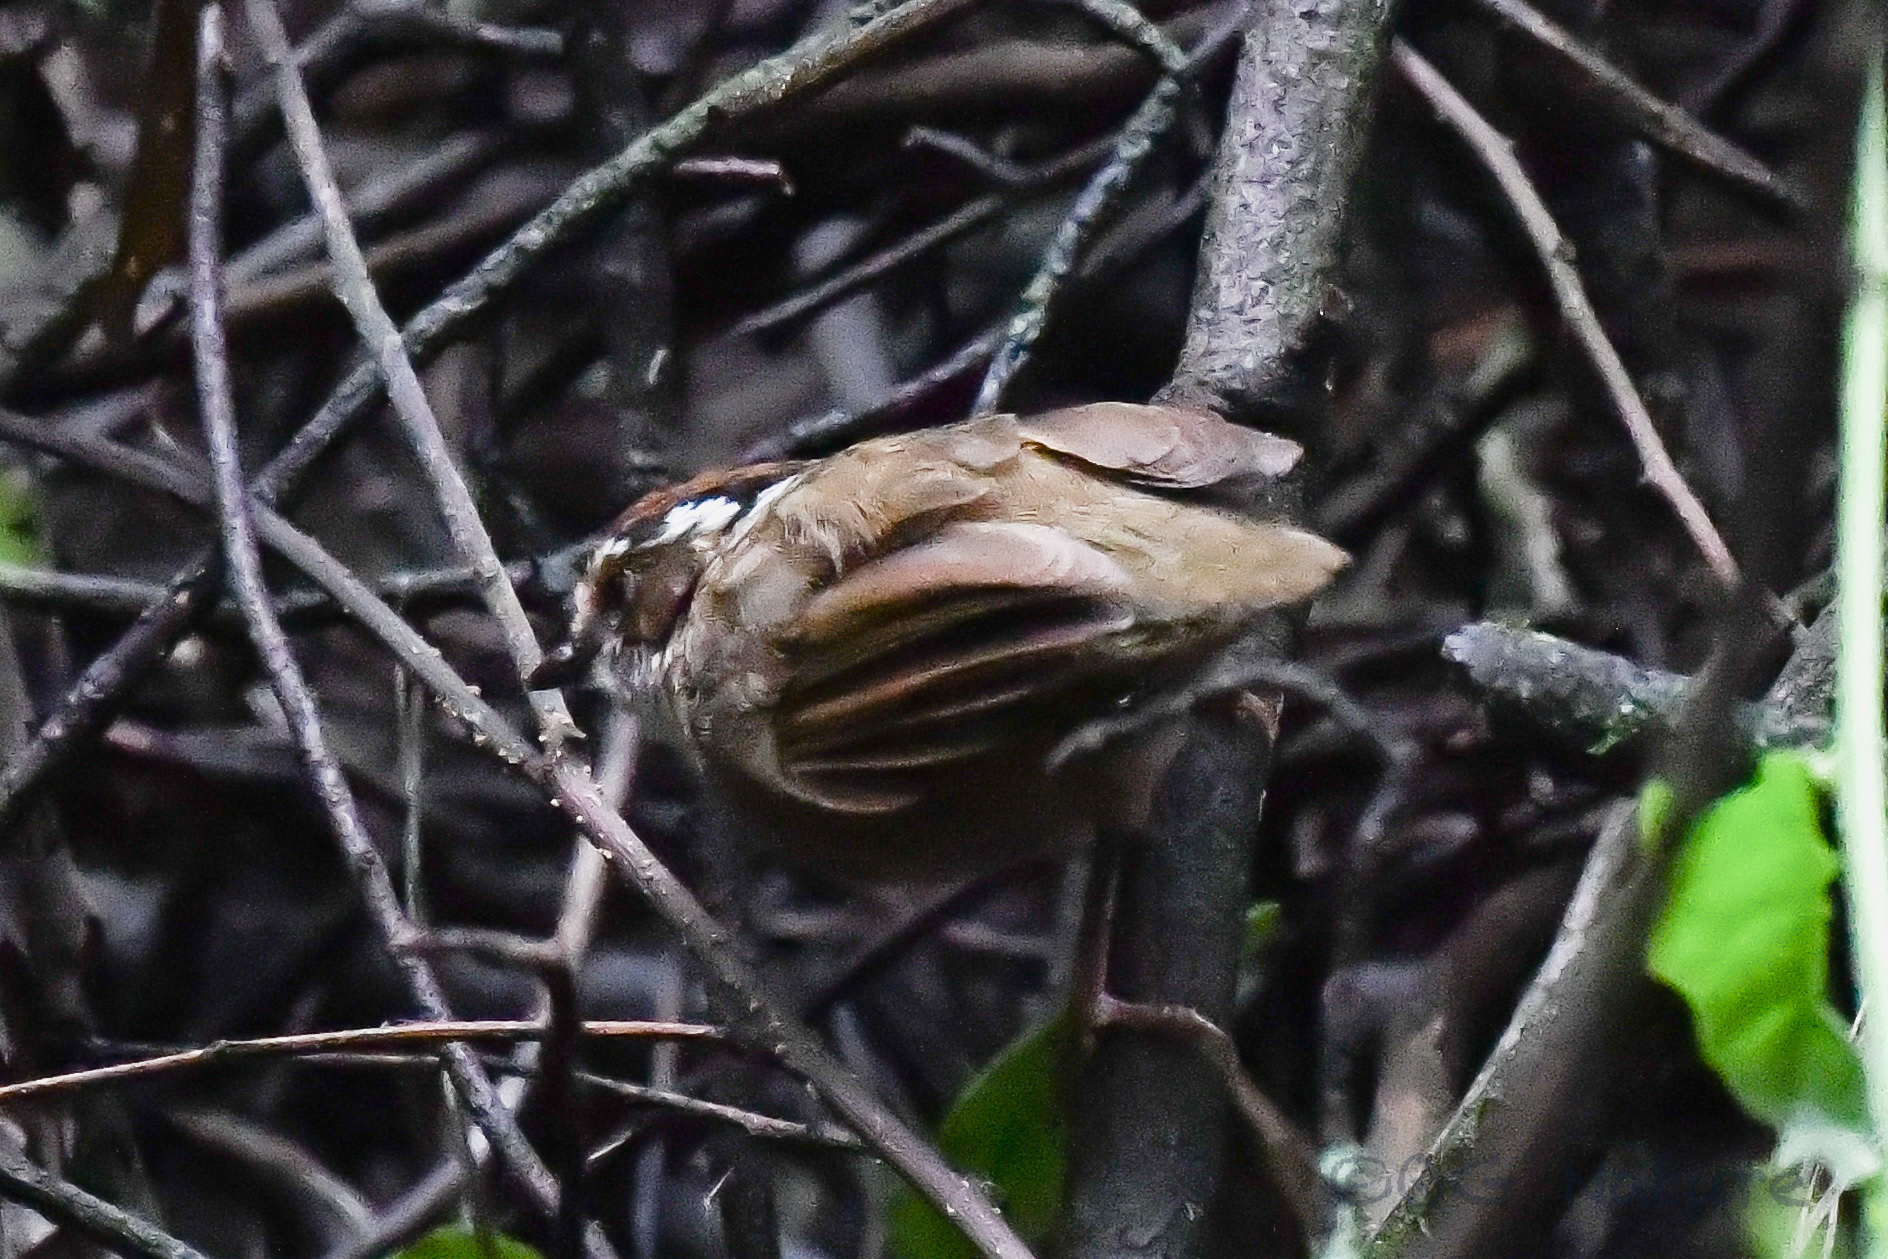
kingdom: Animalia
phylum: Chordata
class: Aves
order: Passeriformes
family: Pellorneidae
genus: Alcippe
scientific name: Alcippe dubia
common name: Rusty-capped fulvetta
